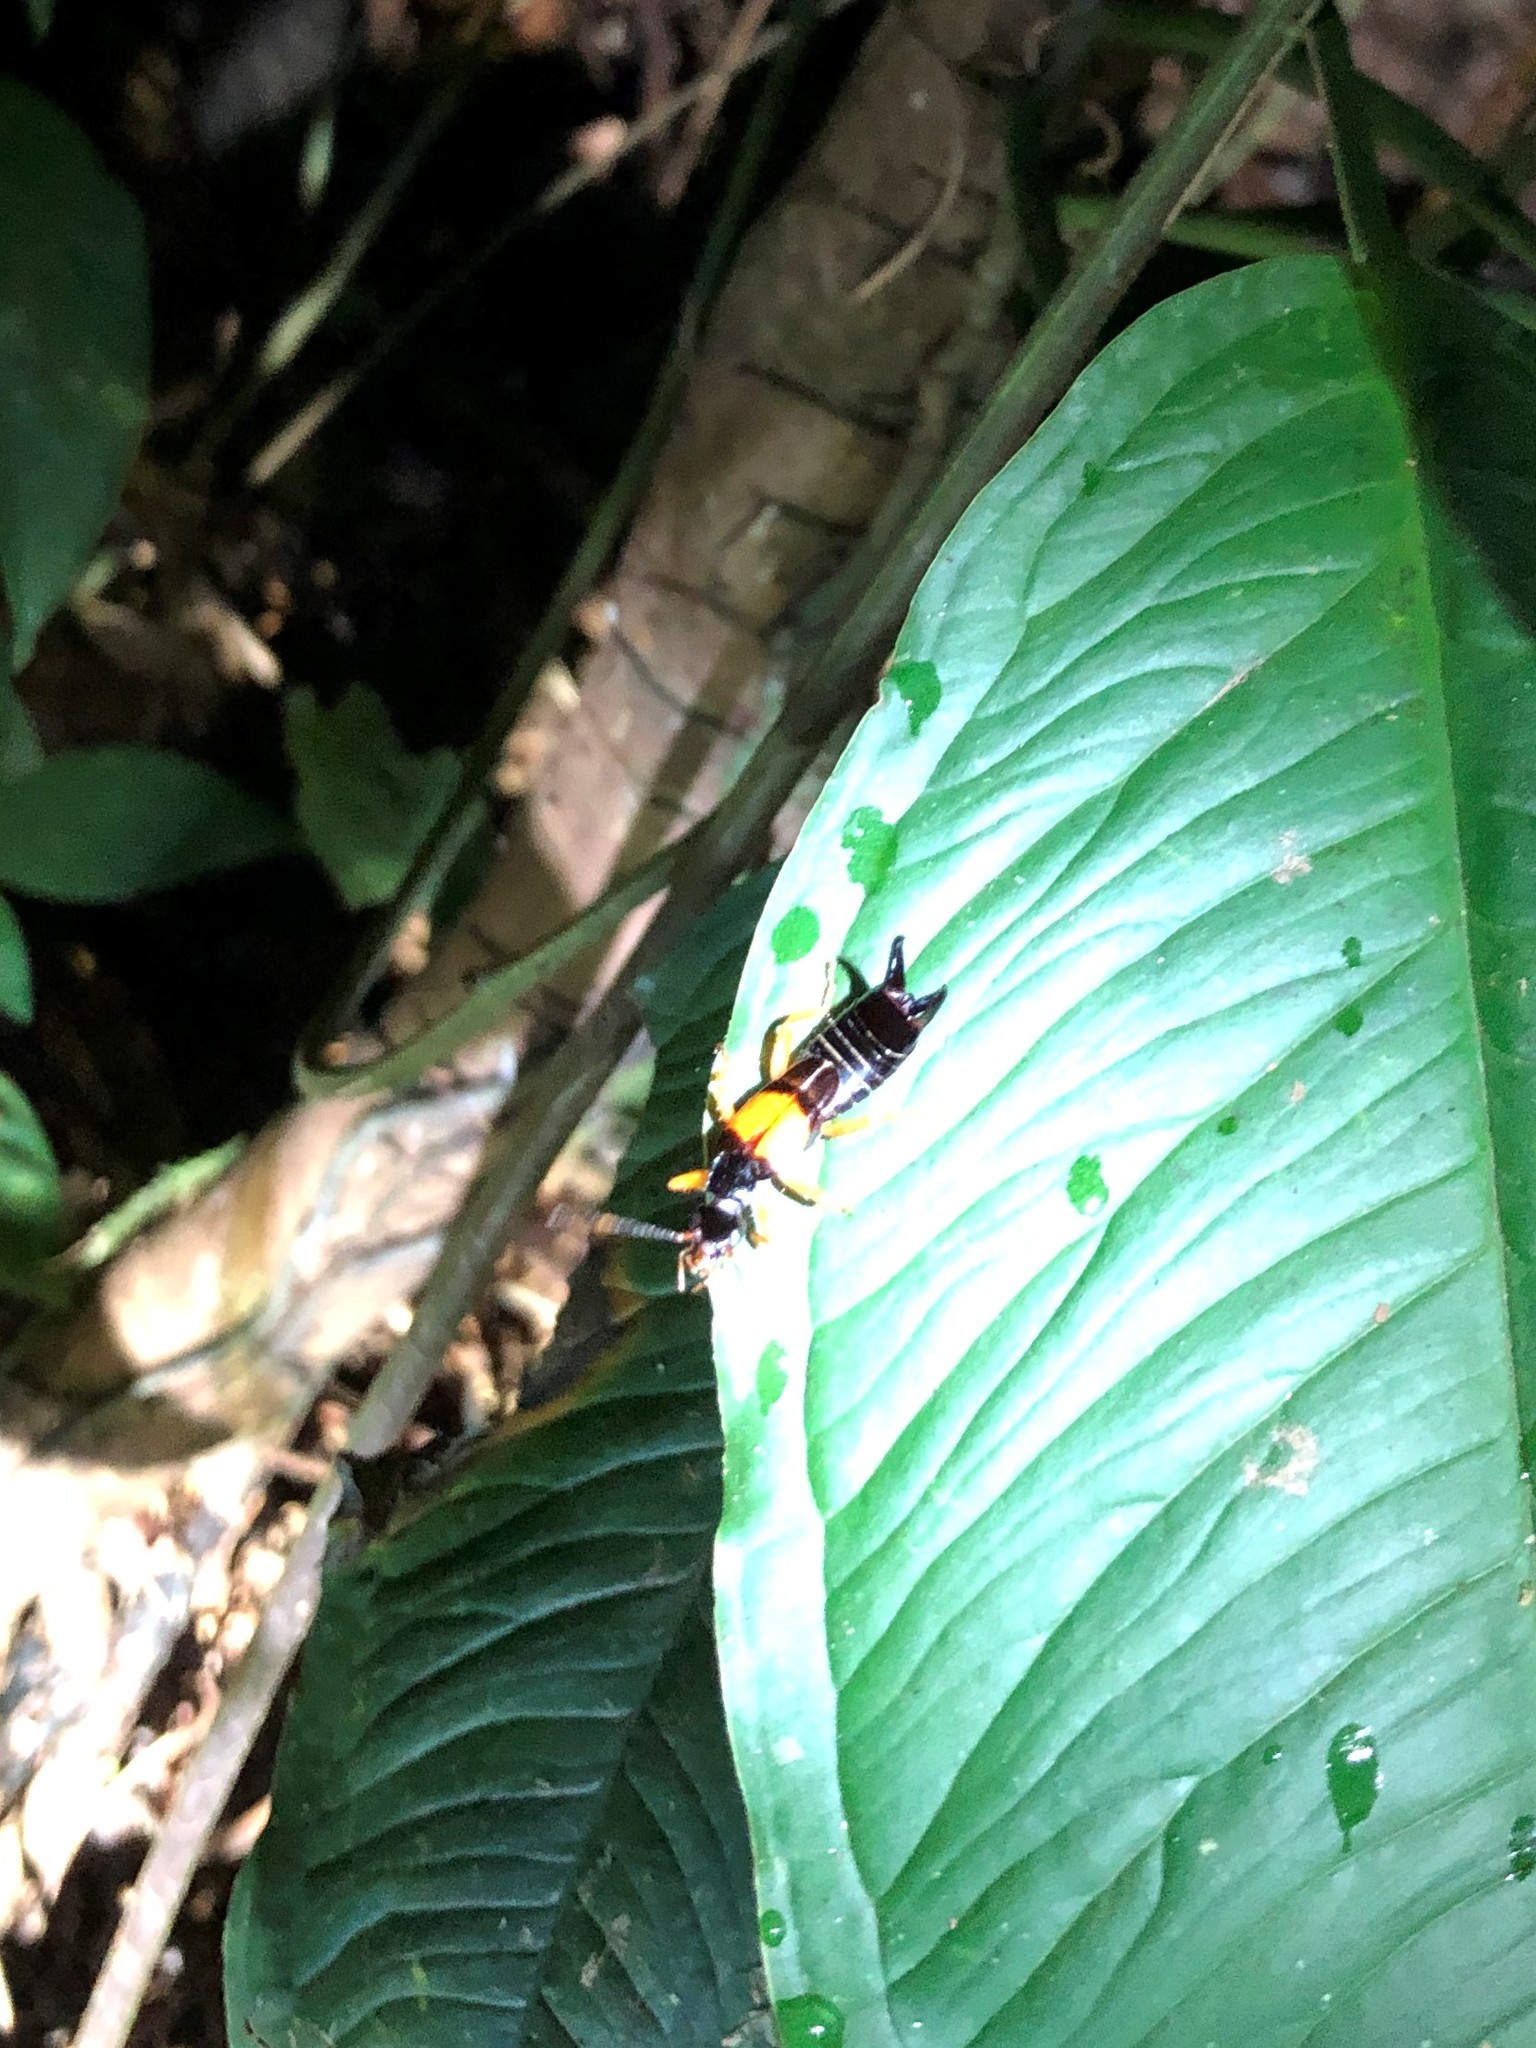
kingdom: Animalia
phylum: Arthropoda
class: Insecta
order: Dermaptera
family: Anisolabididae
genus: Carcinophora
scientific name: Carcinophora americana
